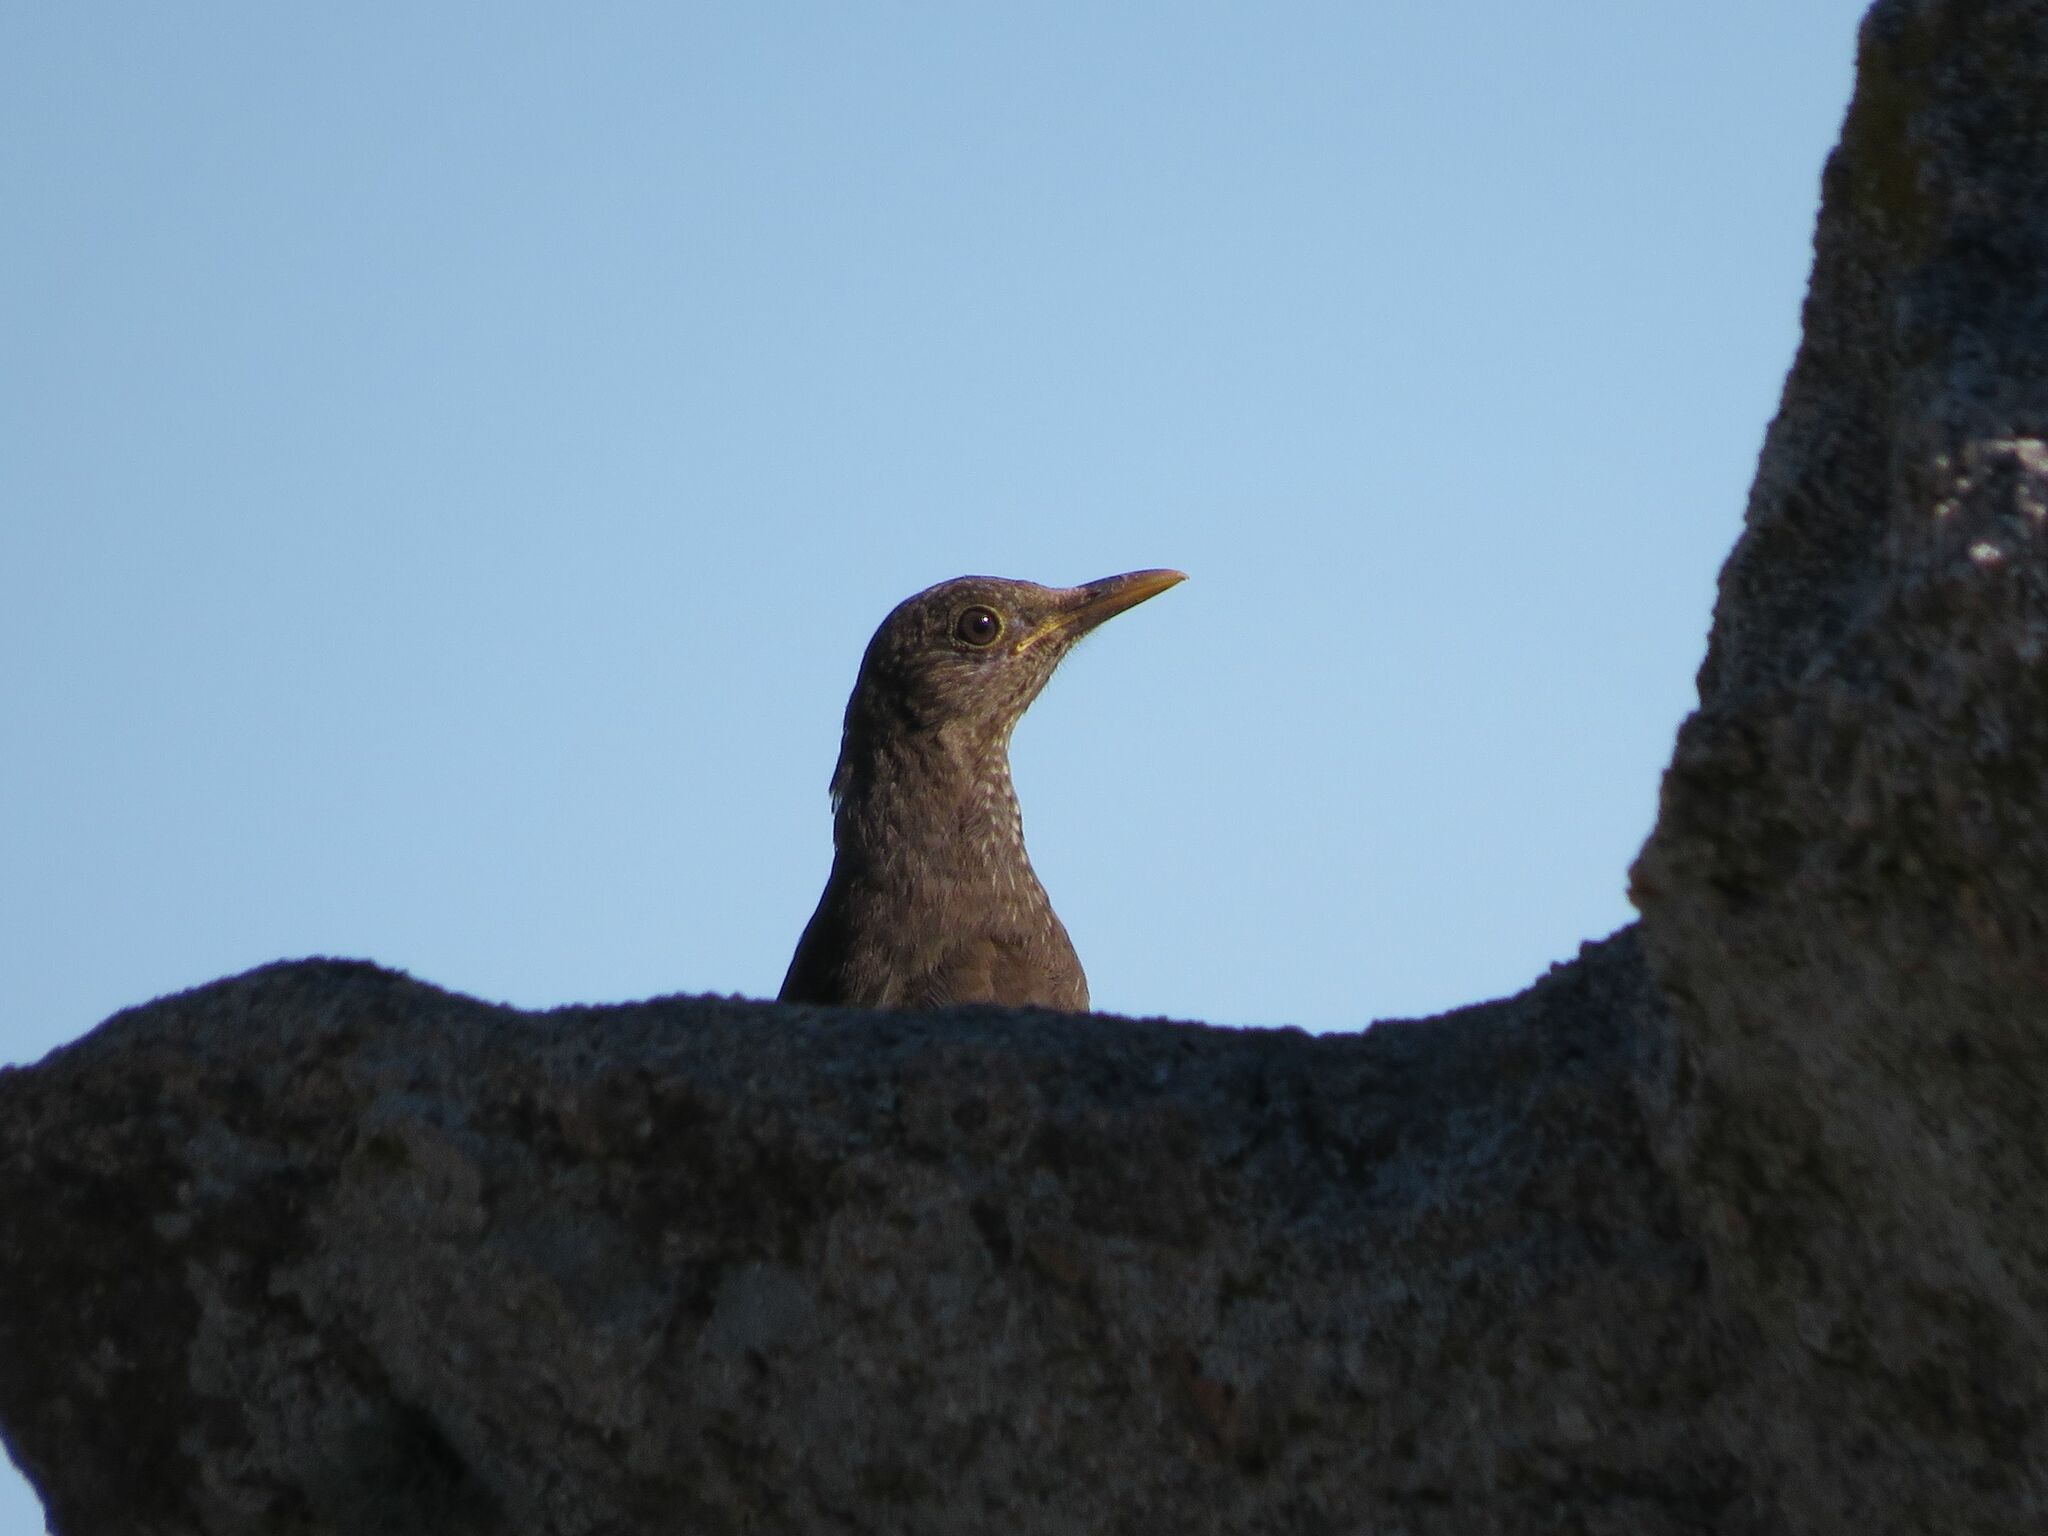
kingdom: Animalia
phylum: Chordata
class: Aves
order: Passeriformes
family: Turdidae
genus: Turdus
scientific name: Turdus chiguanco
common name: Chiguanco thrush
